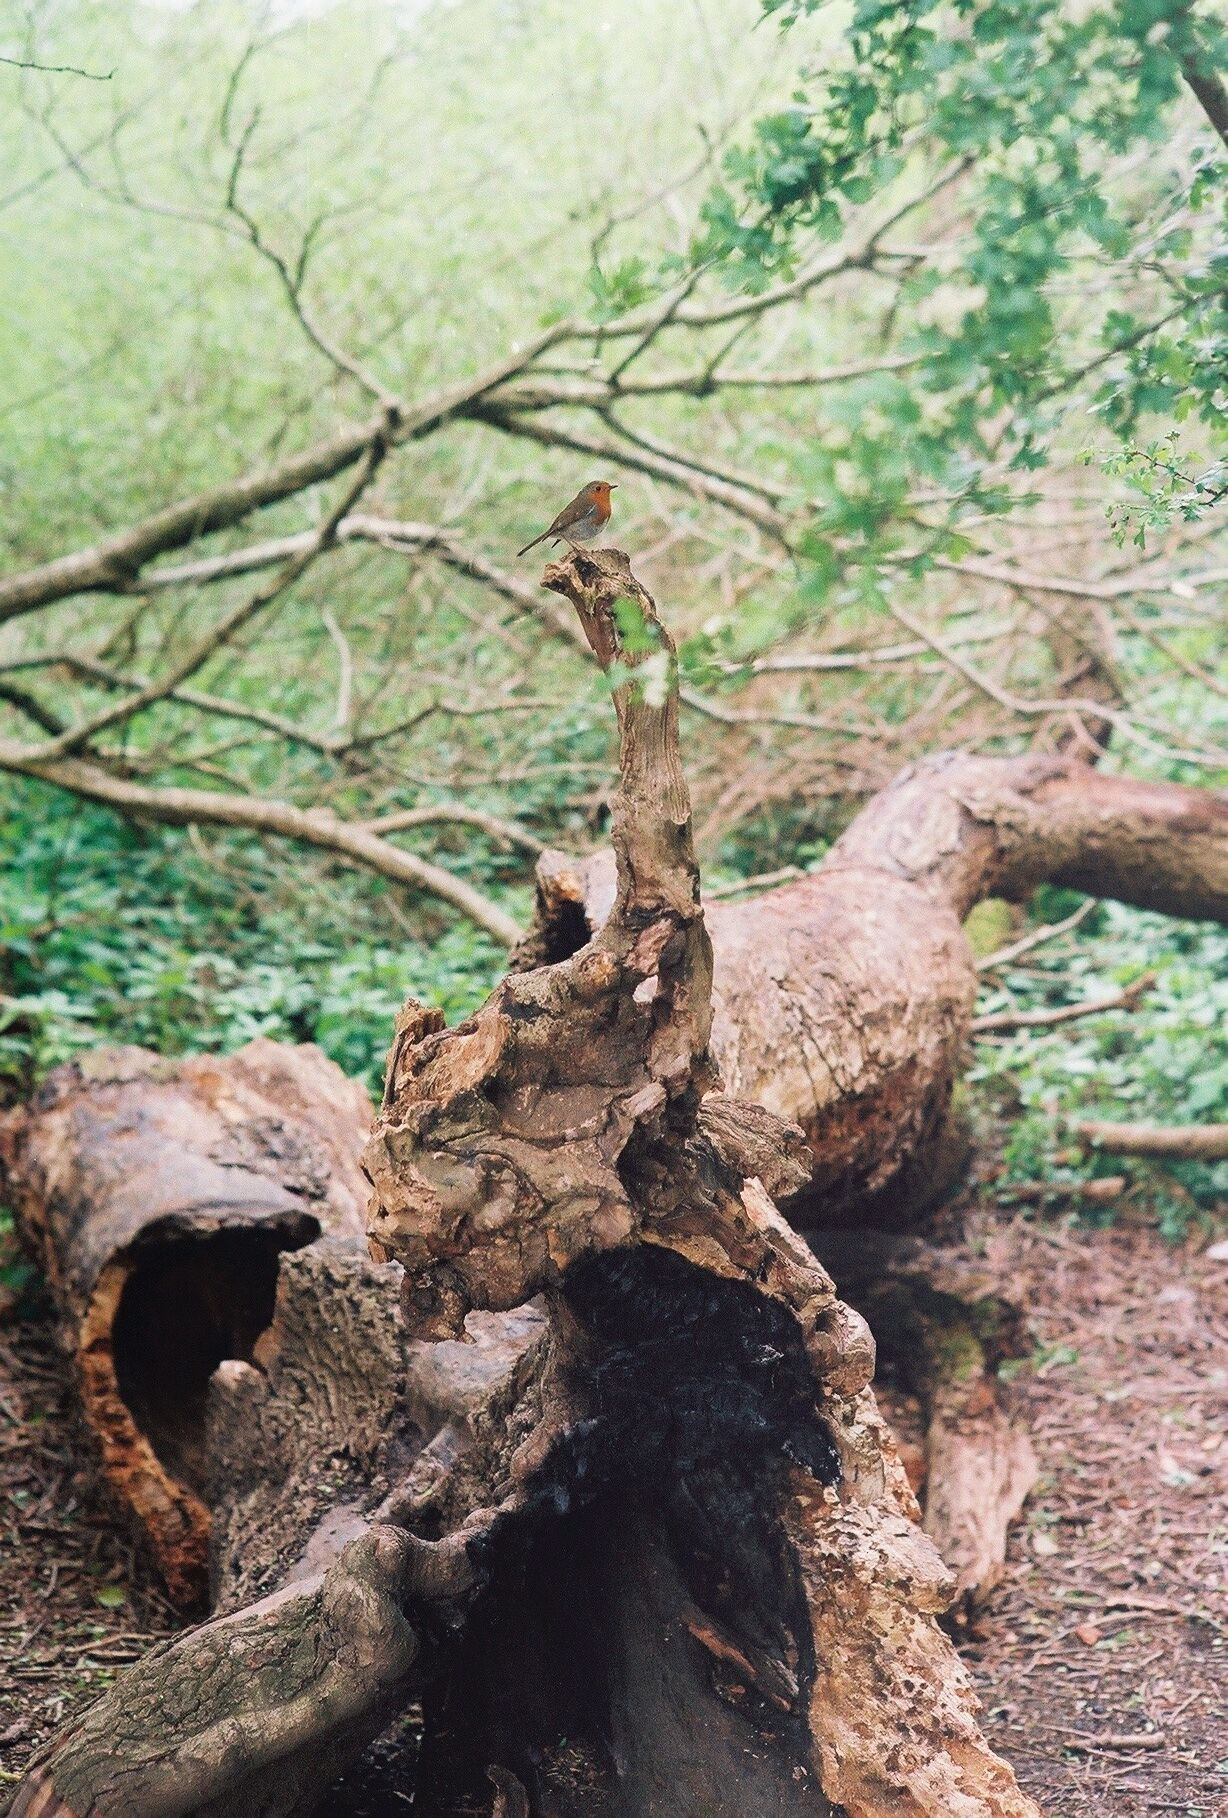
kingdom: Animalia
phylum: Chordata
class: Aves
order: Passeriformes
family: Muscicapidae
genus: Erithacus
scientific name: Erithacus rubecula
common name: European robin
